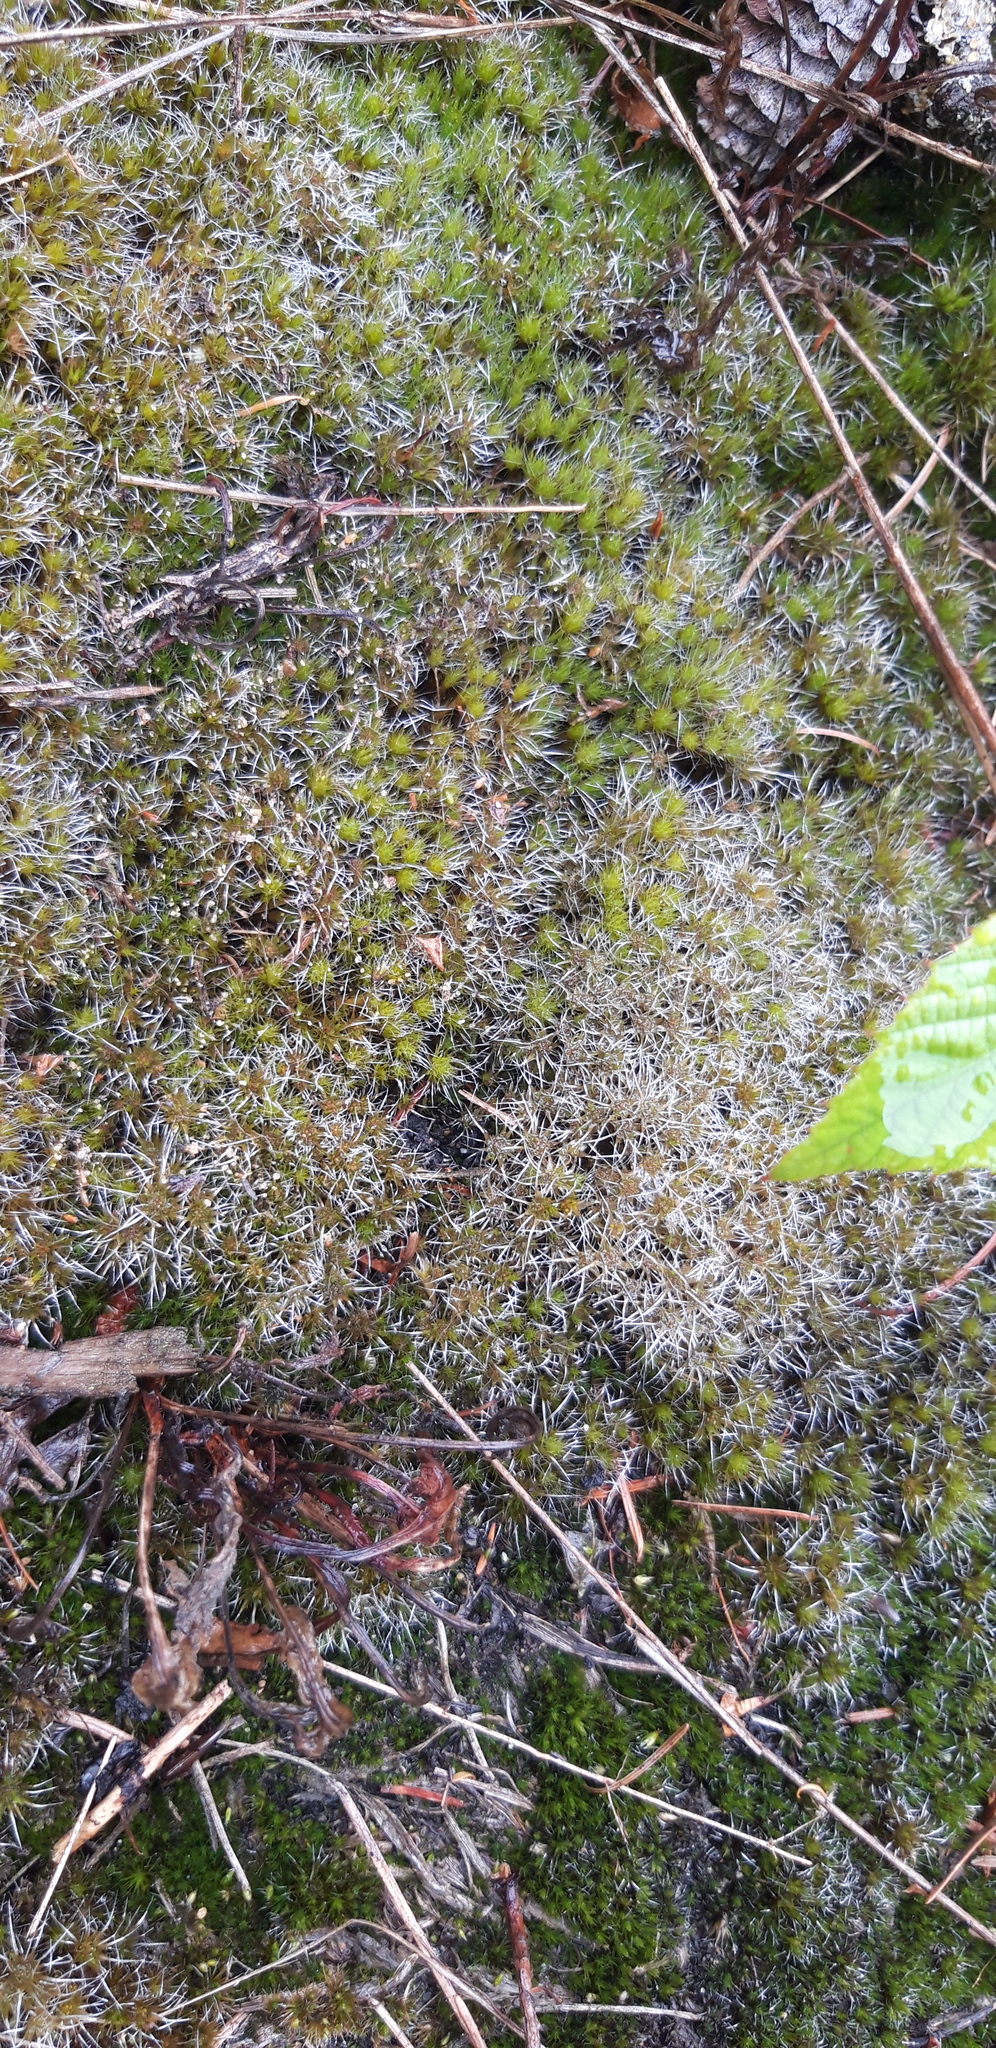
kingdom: Plantae
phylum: Bryophyta
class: Bryopsida
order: Dicranales
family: Leucobryaceae
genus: Campylopus
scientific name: Campylopus introflexus
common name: Heath star moss
